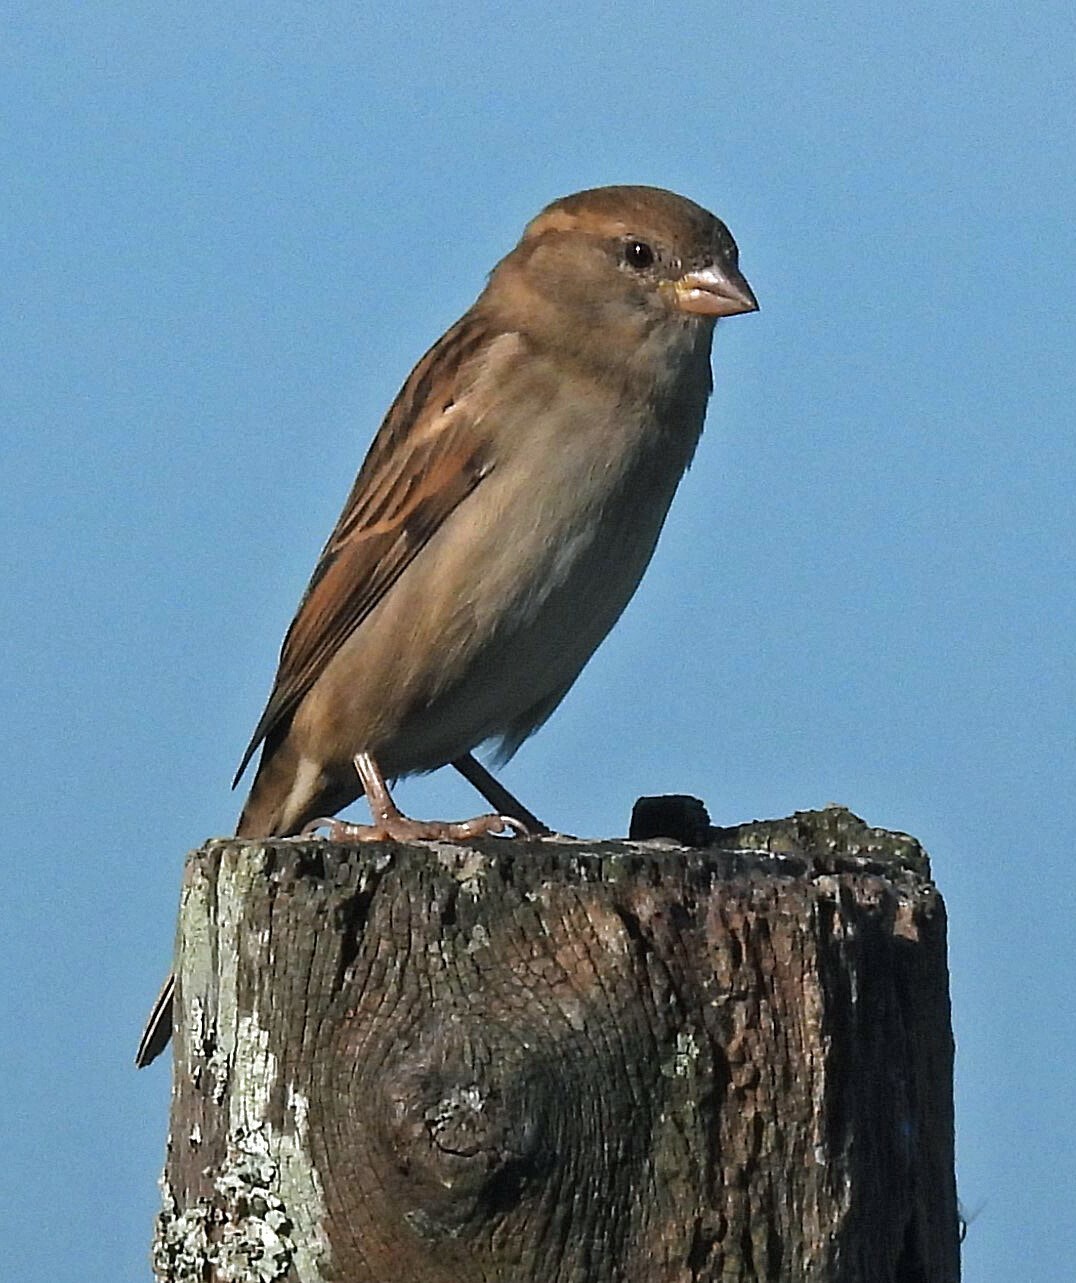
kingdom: Animalia
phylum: Chordata
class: Aves
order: Passeriformes
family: Passeridae
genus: Passer
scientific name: Passer domesticus
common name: House sparrow
